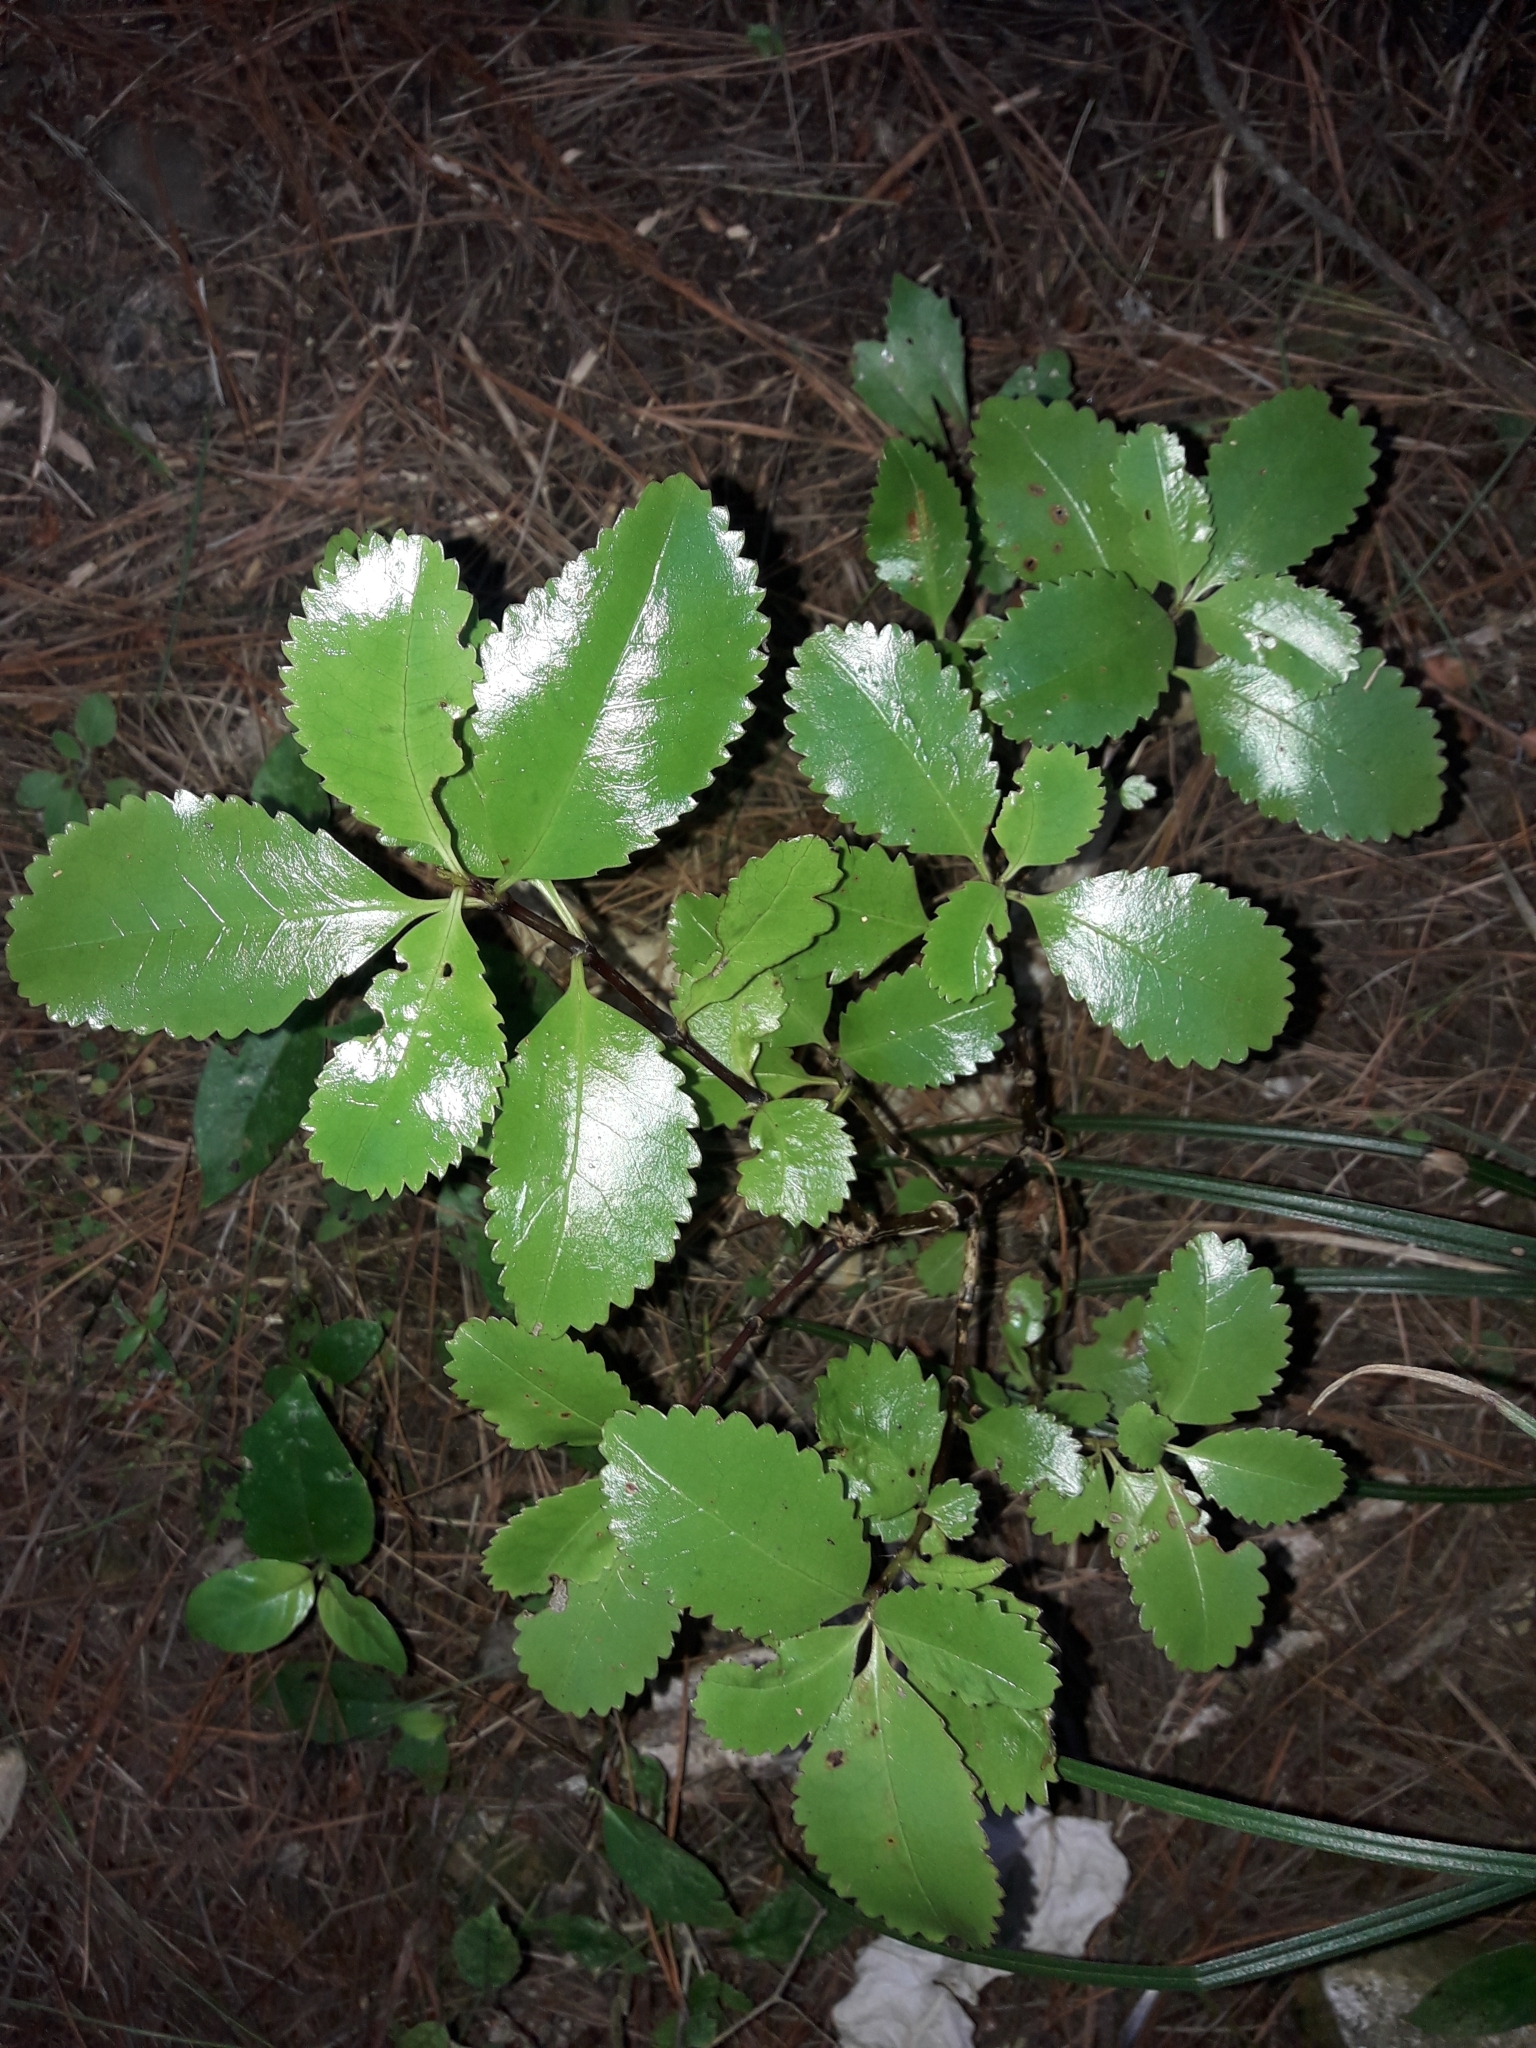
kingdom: Plantae
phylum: Tracheophyta
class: Magnoliopsida
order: Chloranthales
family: Chloranthaceae
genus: Ascarina
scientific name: Ascarina lucida
